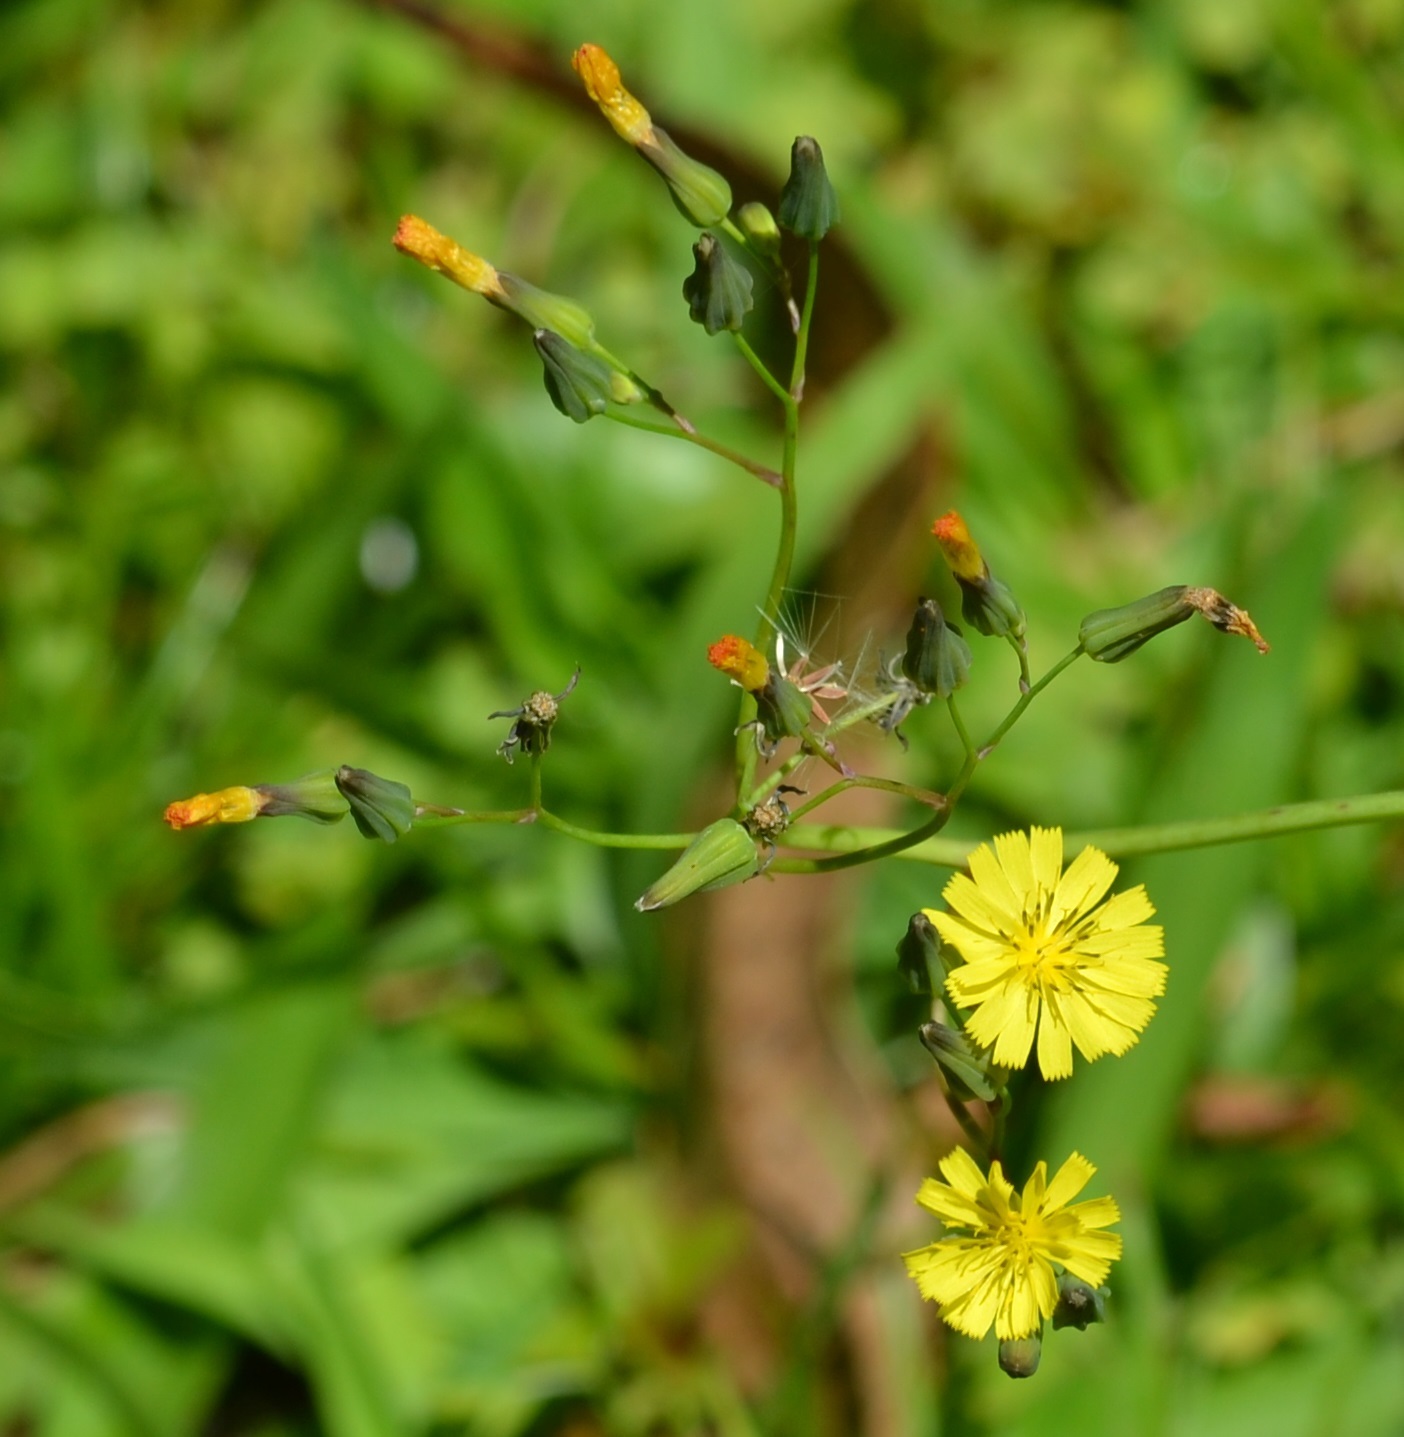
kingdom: Plantae
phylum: Tracheophyta
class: Magnoliopsida
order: Asterales
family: Asteraceae
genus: Youngia
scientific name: Youngia japonica
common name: Oriental false hawksbeard
